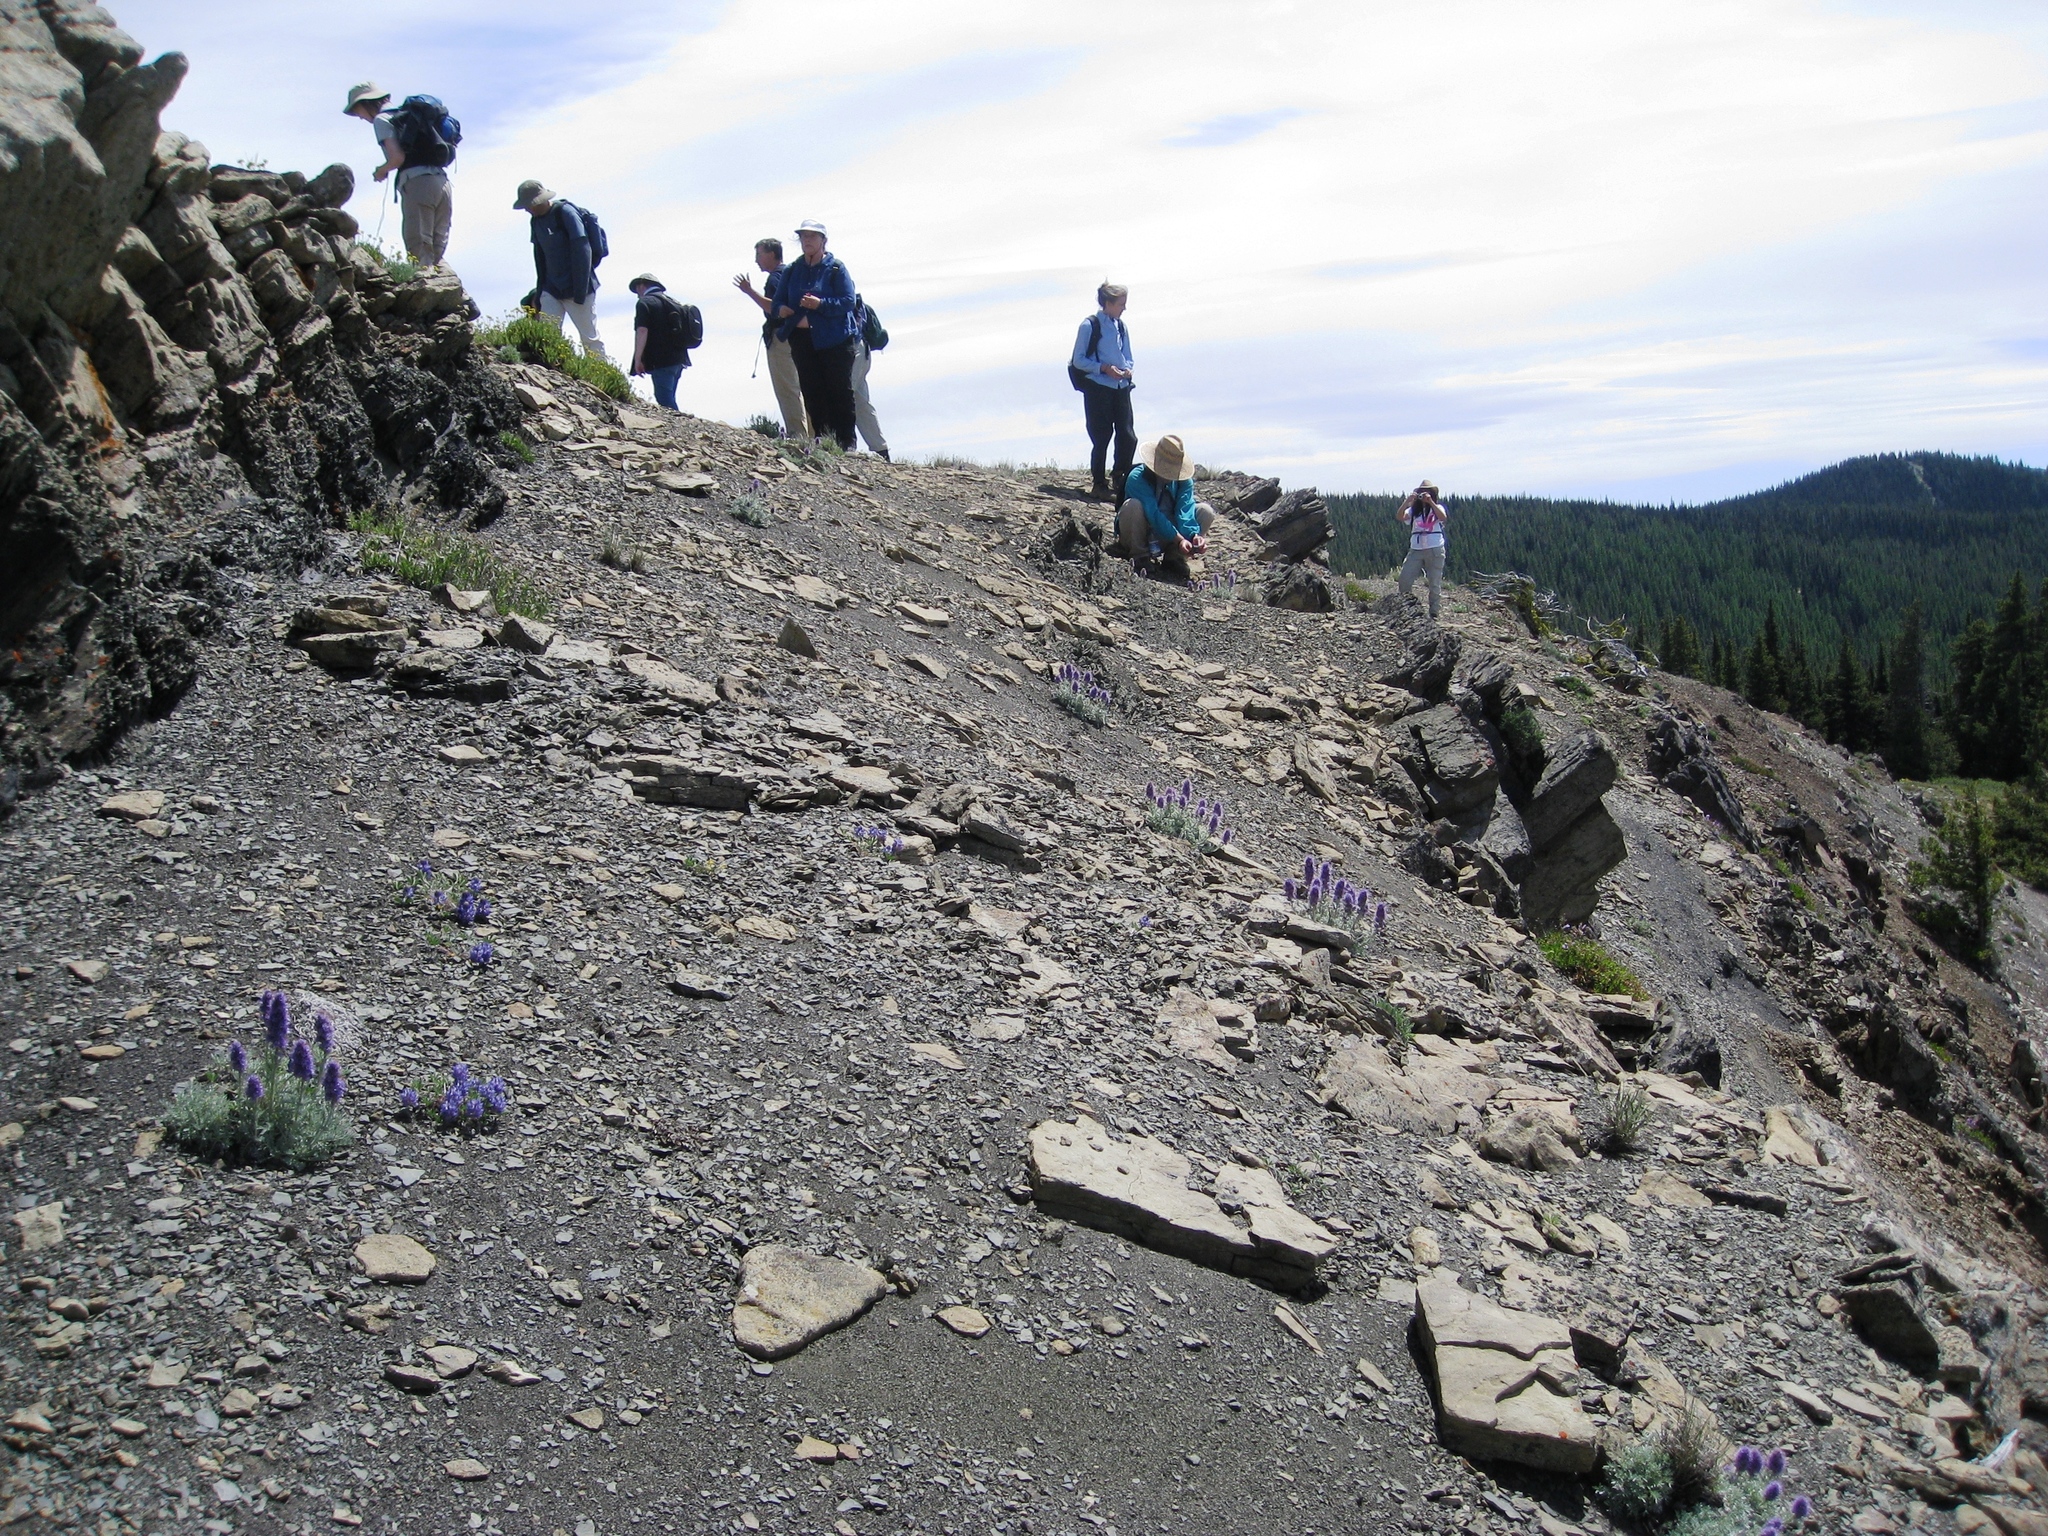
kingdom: Plantae
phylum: Tracheophyta
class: Magnoliopsida
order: Boraginales
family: Hydrophyllaceae
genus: Phacelia
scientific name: Phacelia sericea
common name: Silky phacelia
